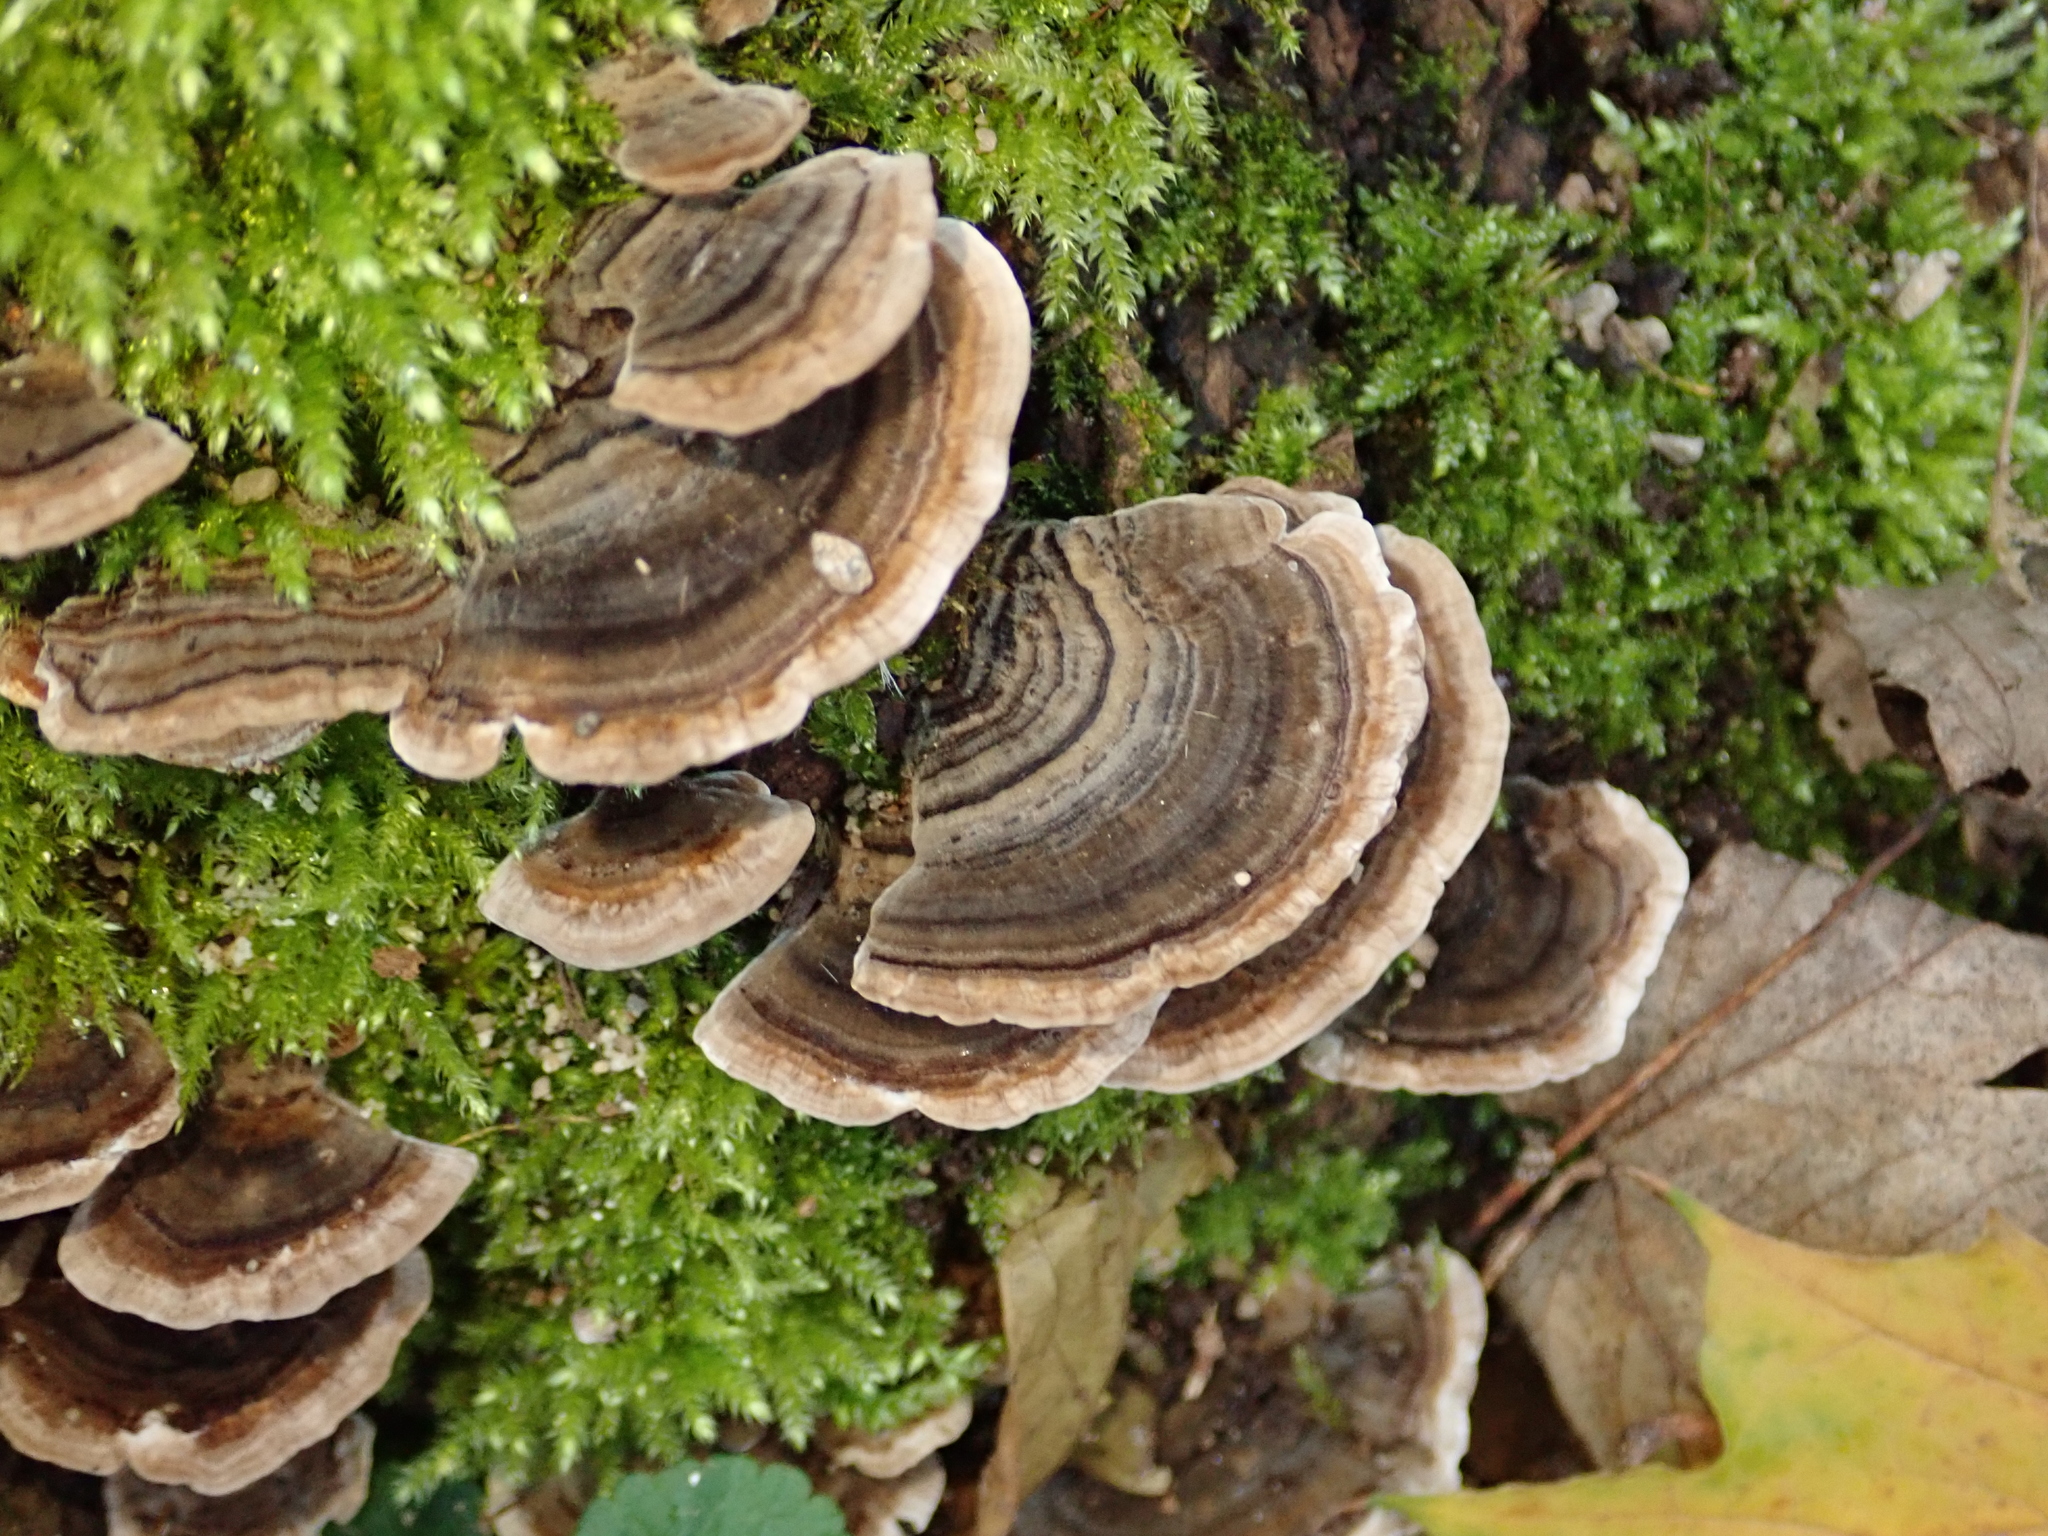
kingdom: Fungi
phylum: Basidiomycota
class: Agaricomycetes
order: Polyporales
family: Polyporaceae
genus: Trametes
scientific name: Trametes versicolor
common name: Turkeytail
